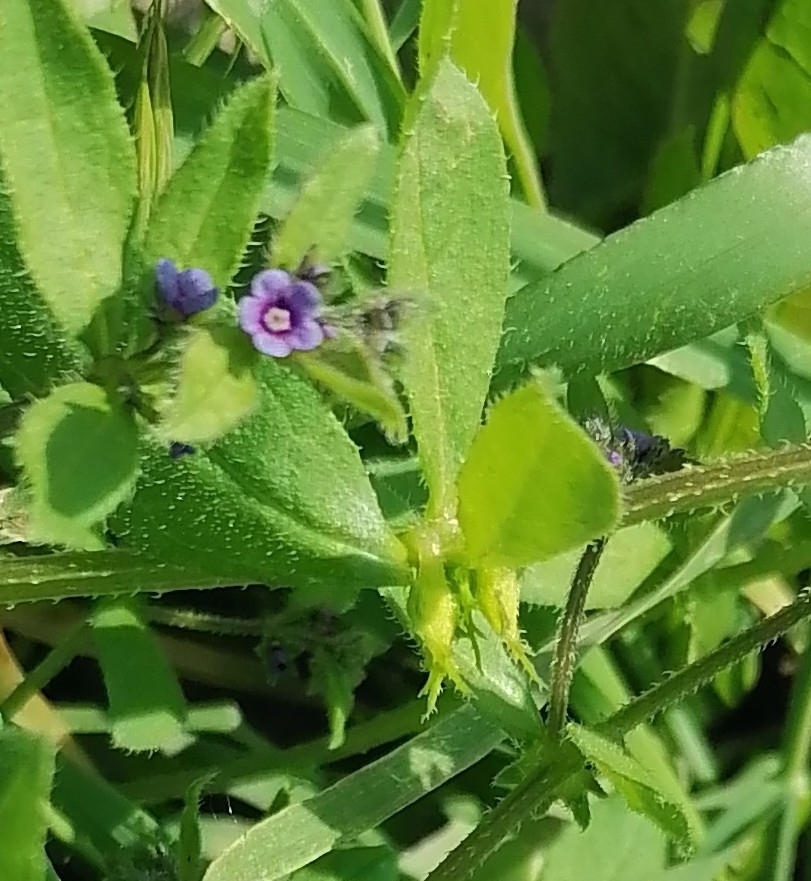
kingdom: Plantae
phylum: Tracheophyta
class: Magnoliopsida
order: Boraginales
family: Boraginaceae
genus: Asperugo
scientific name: Asperugo procumbens
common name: Madwort
